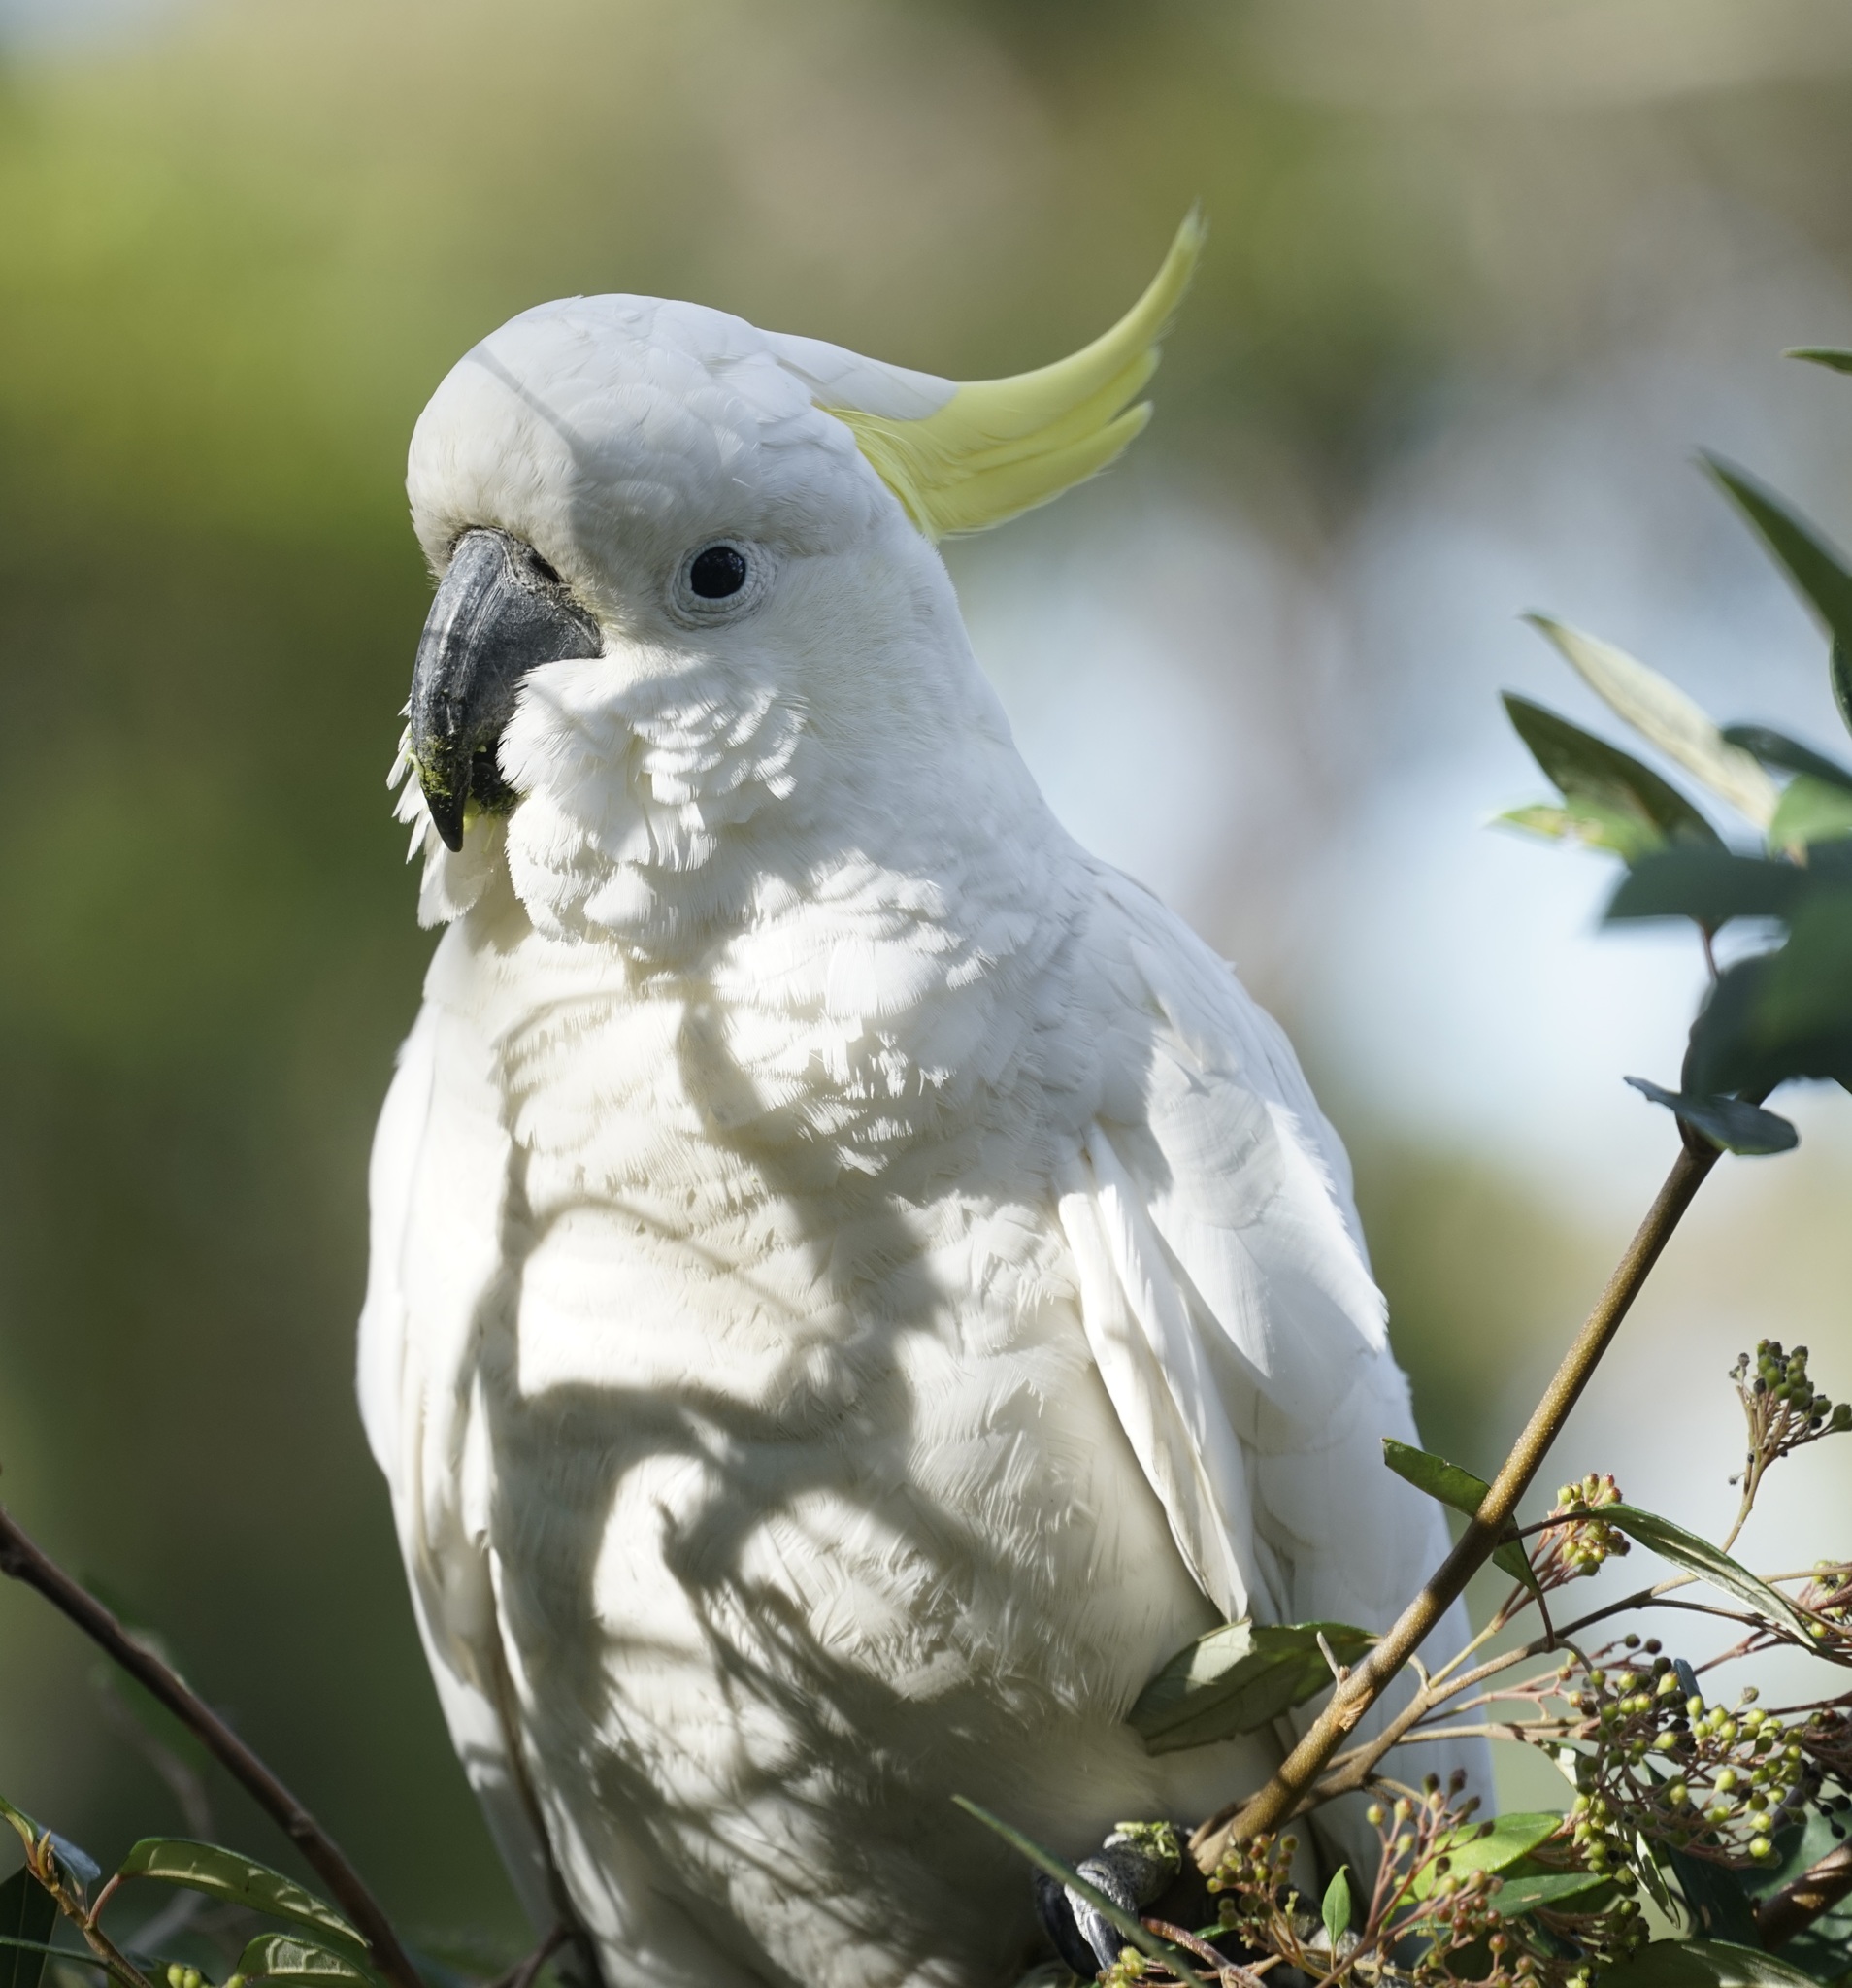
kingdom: Animalia
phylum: Chordata
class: Aves
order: Psittaciformes
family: Psittacidae
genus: Cacatua
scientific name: Cacatua galerita
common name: Sulphur-crested cockatoo
